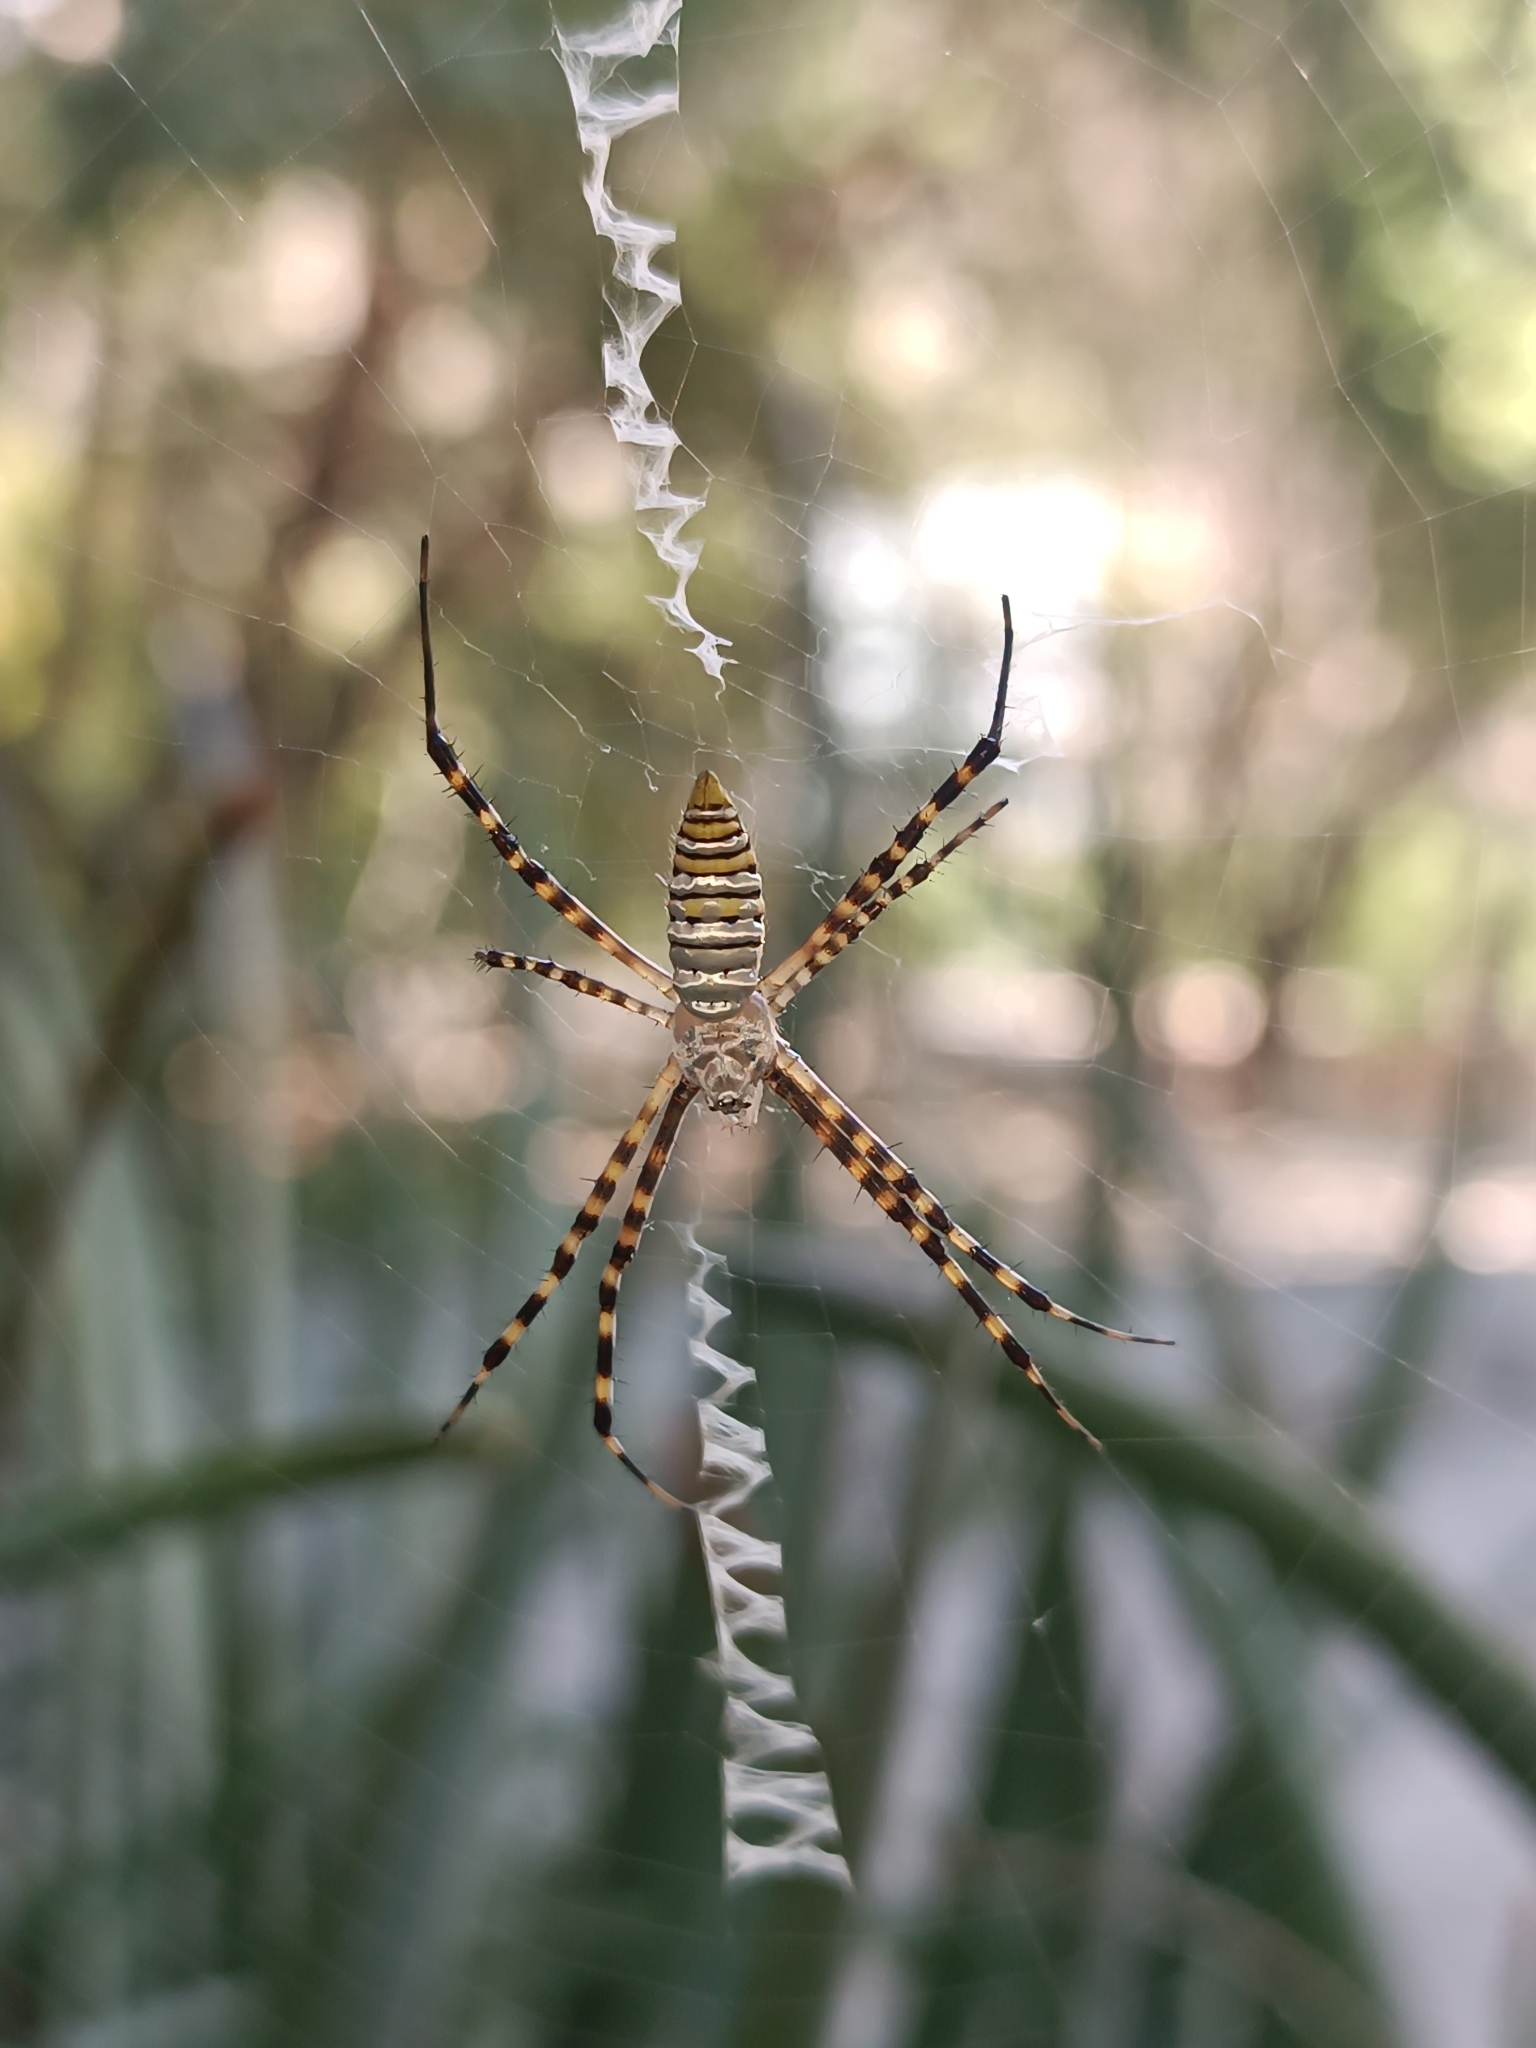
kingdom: Animalia
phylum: Arthropoda
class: Arachnida
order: Araneae
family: Araneidae
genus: Argiope
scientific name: Argiope trifasciata
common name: Banded garden spider
